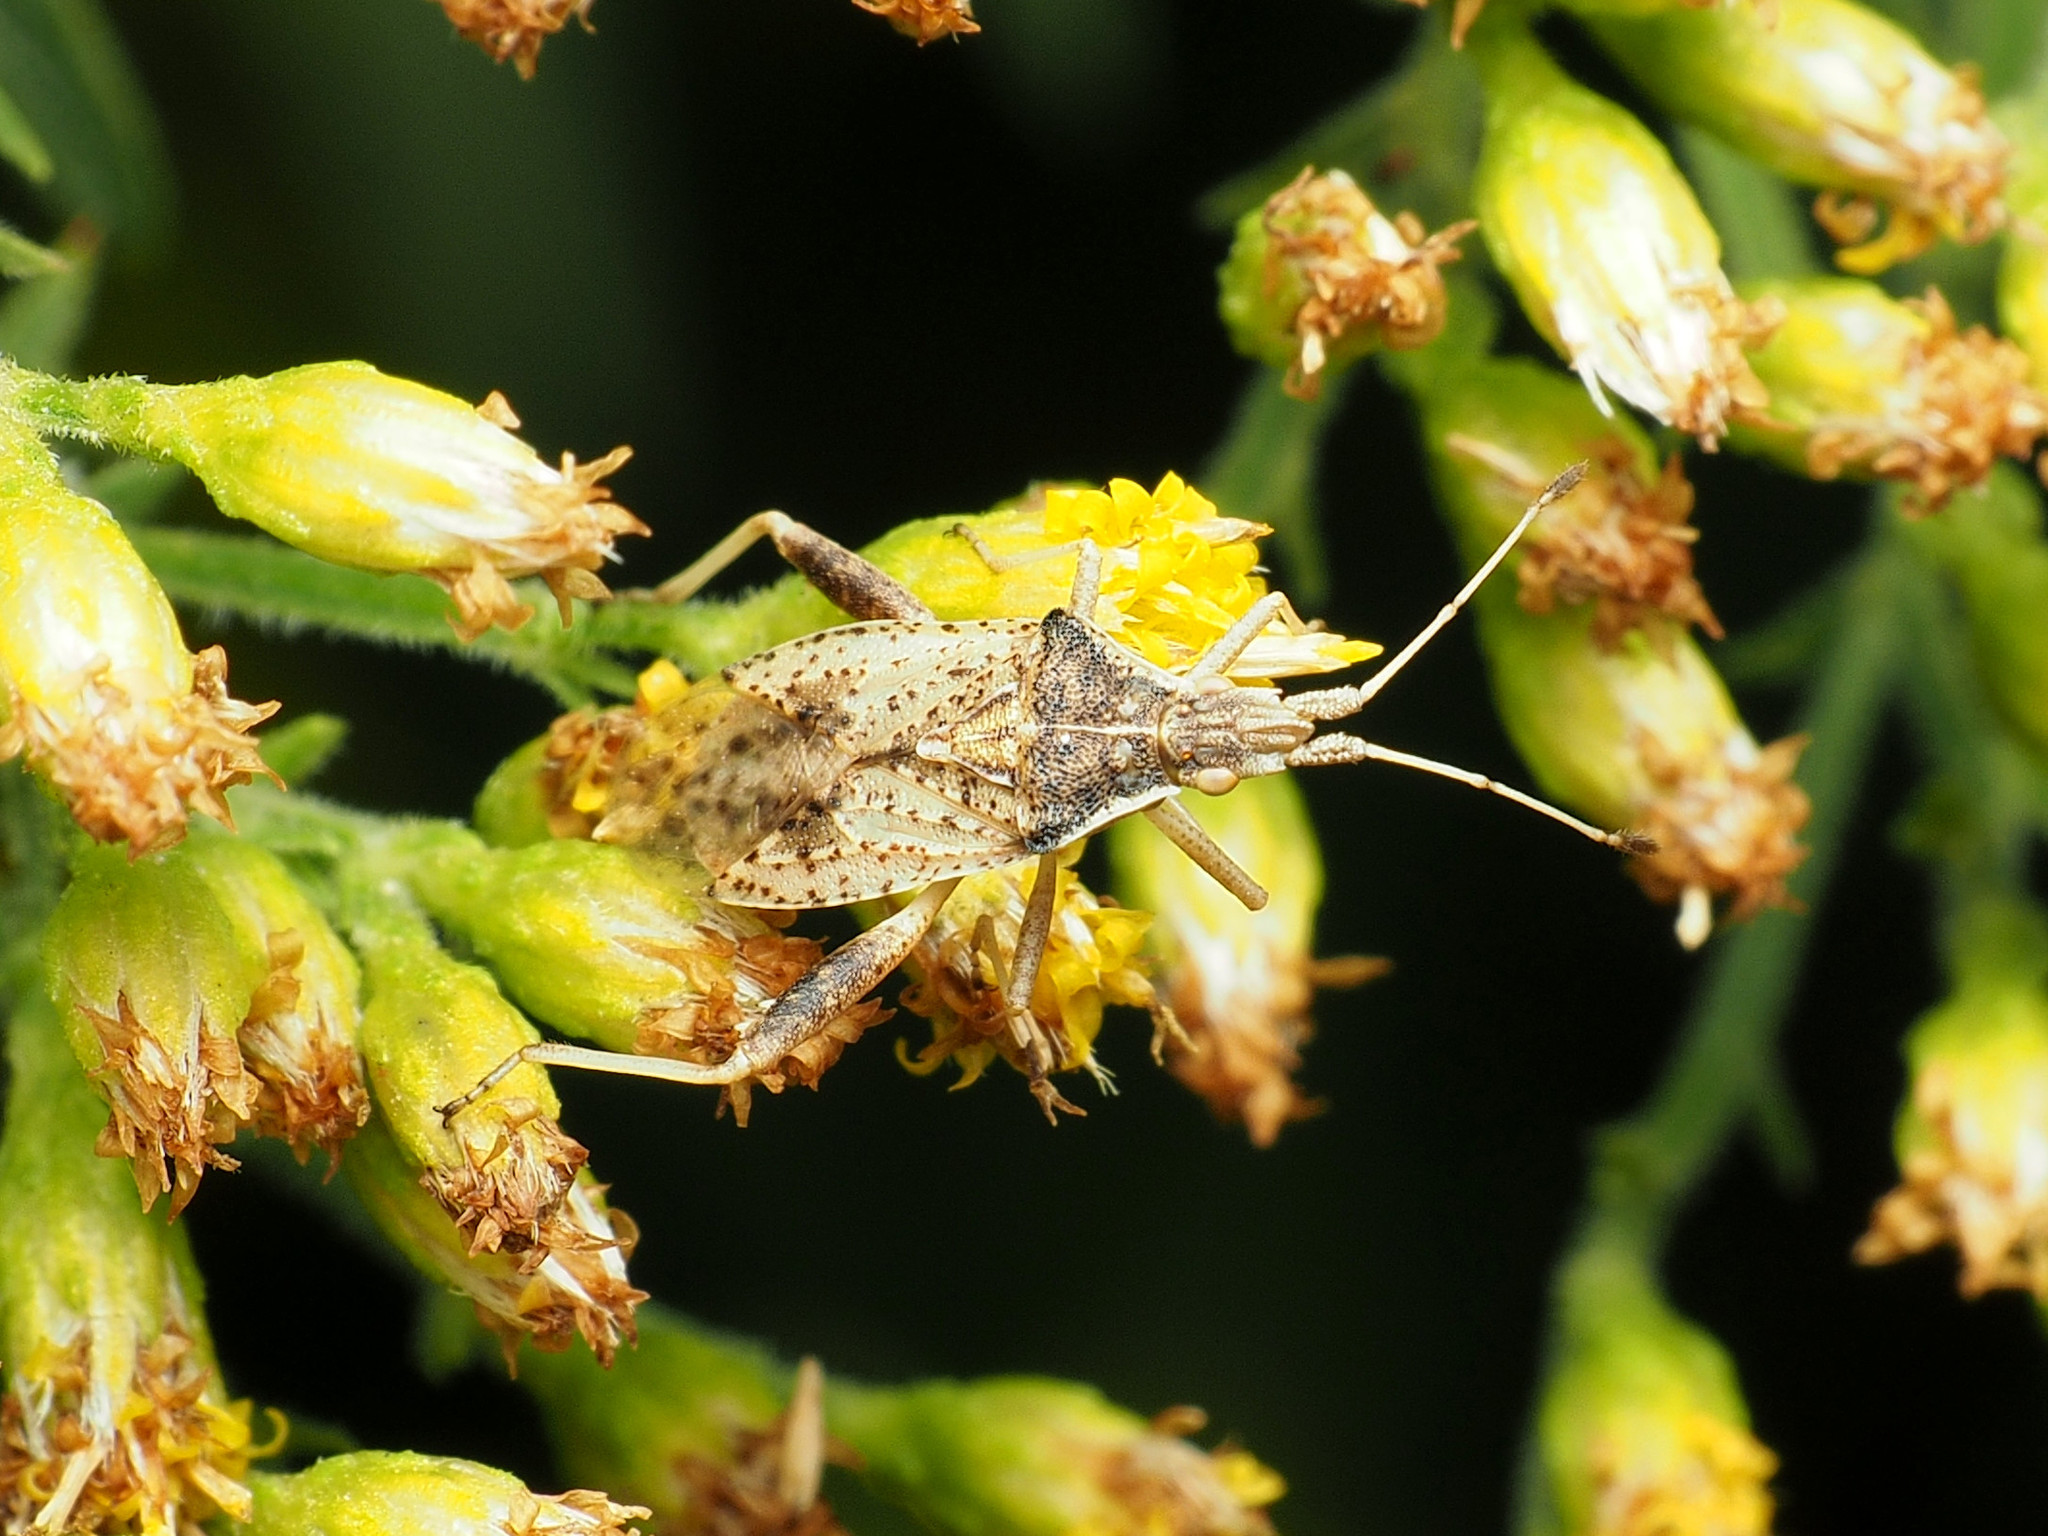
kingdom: Animalia
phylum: Arthropoda
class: Insecta
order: Hemiptera
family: Rhopalidae
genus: Harmostes
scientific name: Harmostes reflexulus
